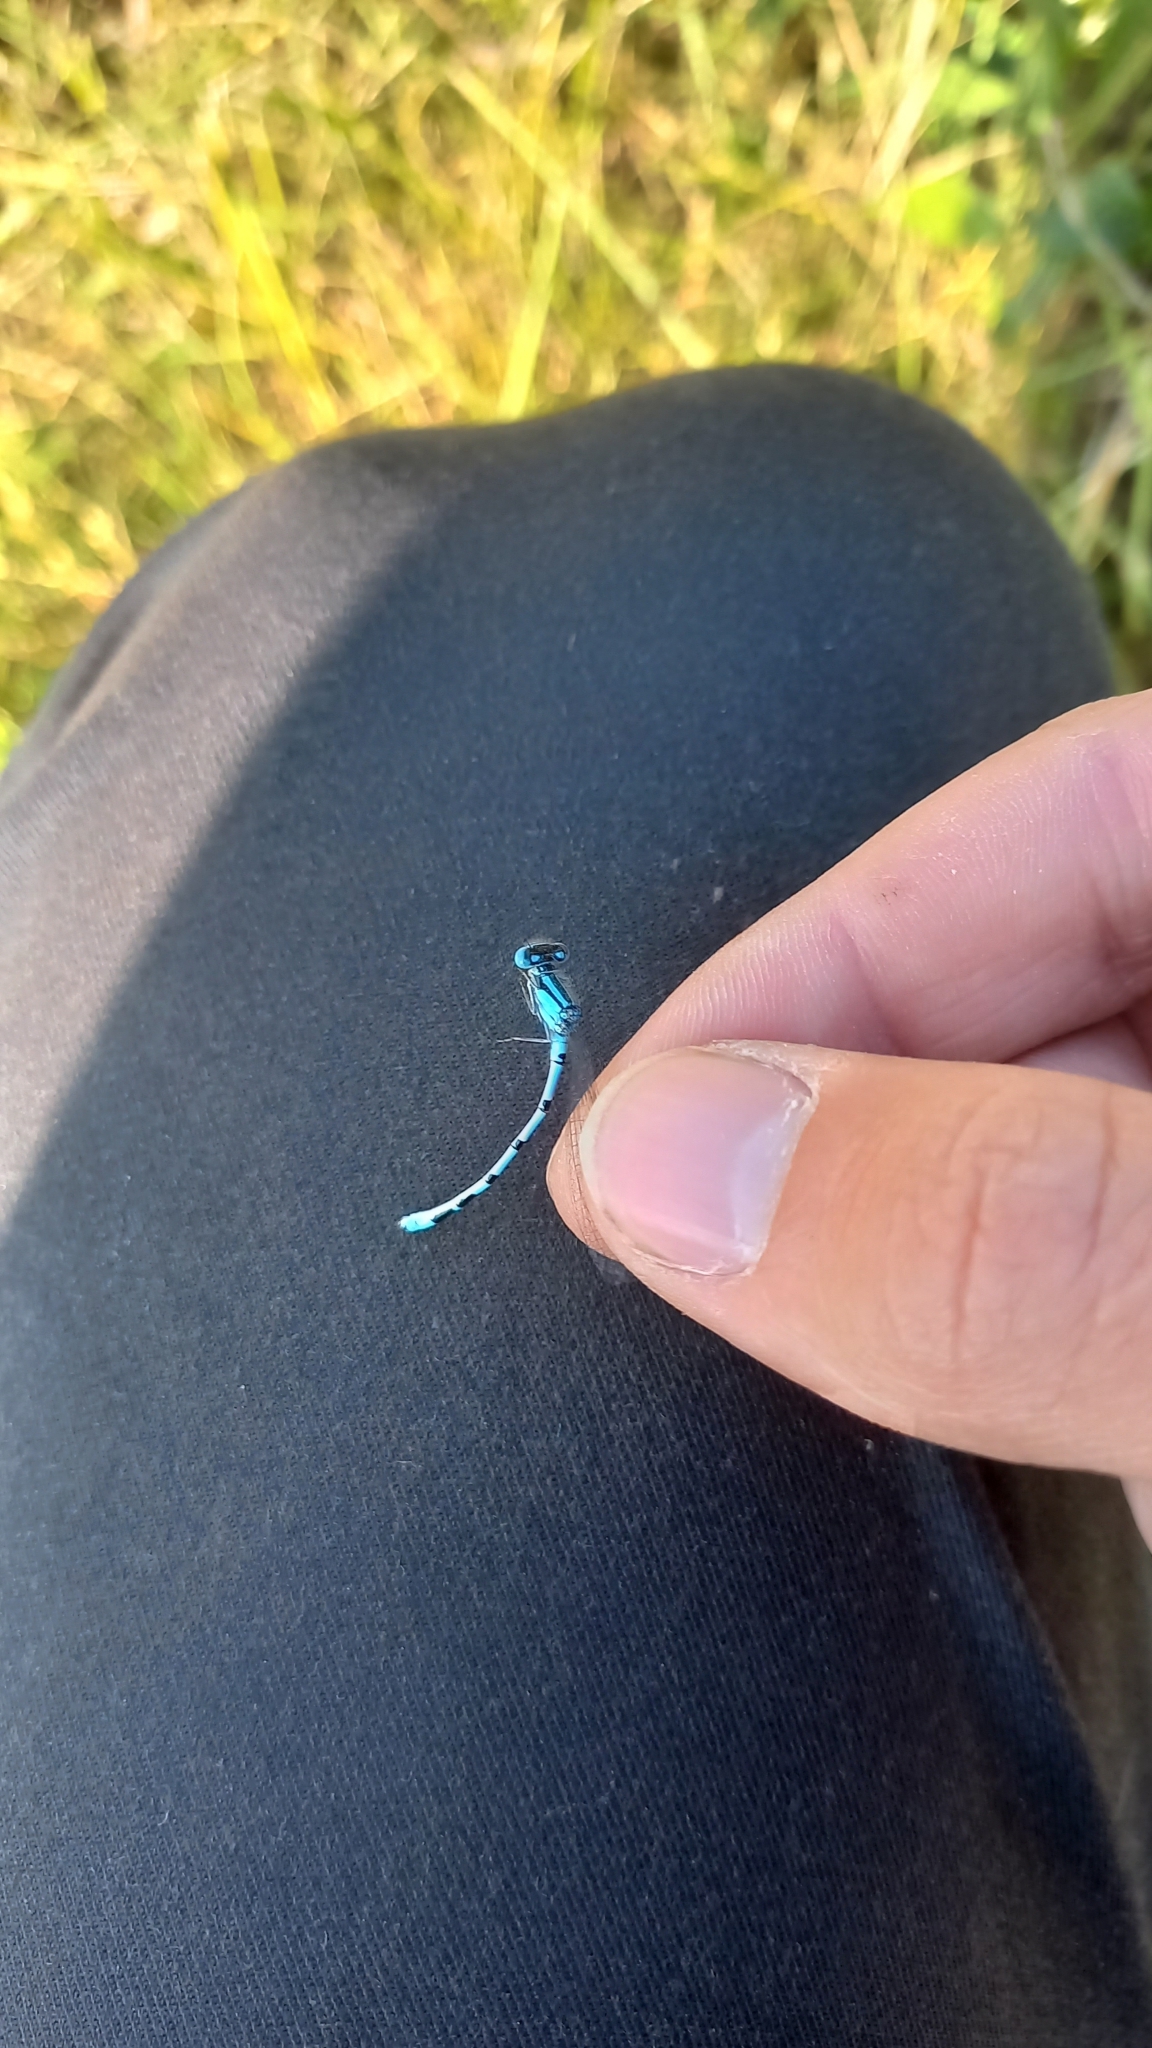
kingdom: Animalia
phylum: Arthropoda
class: Insecta
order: Odonata
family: Coenagrionidae
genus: Enallagma
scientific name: Enallagma cyathigerum
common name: Common blue damselfly
